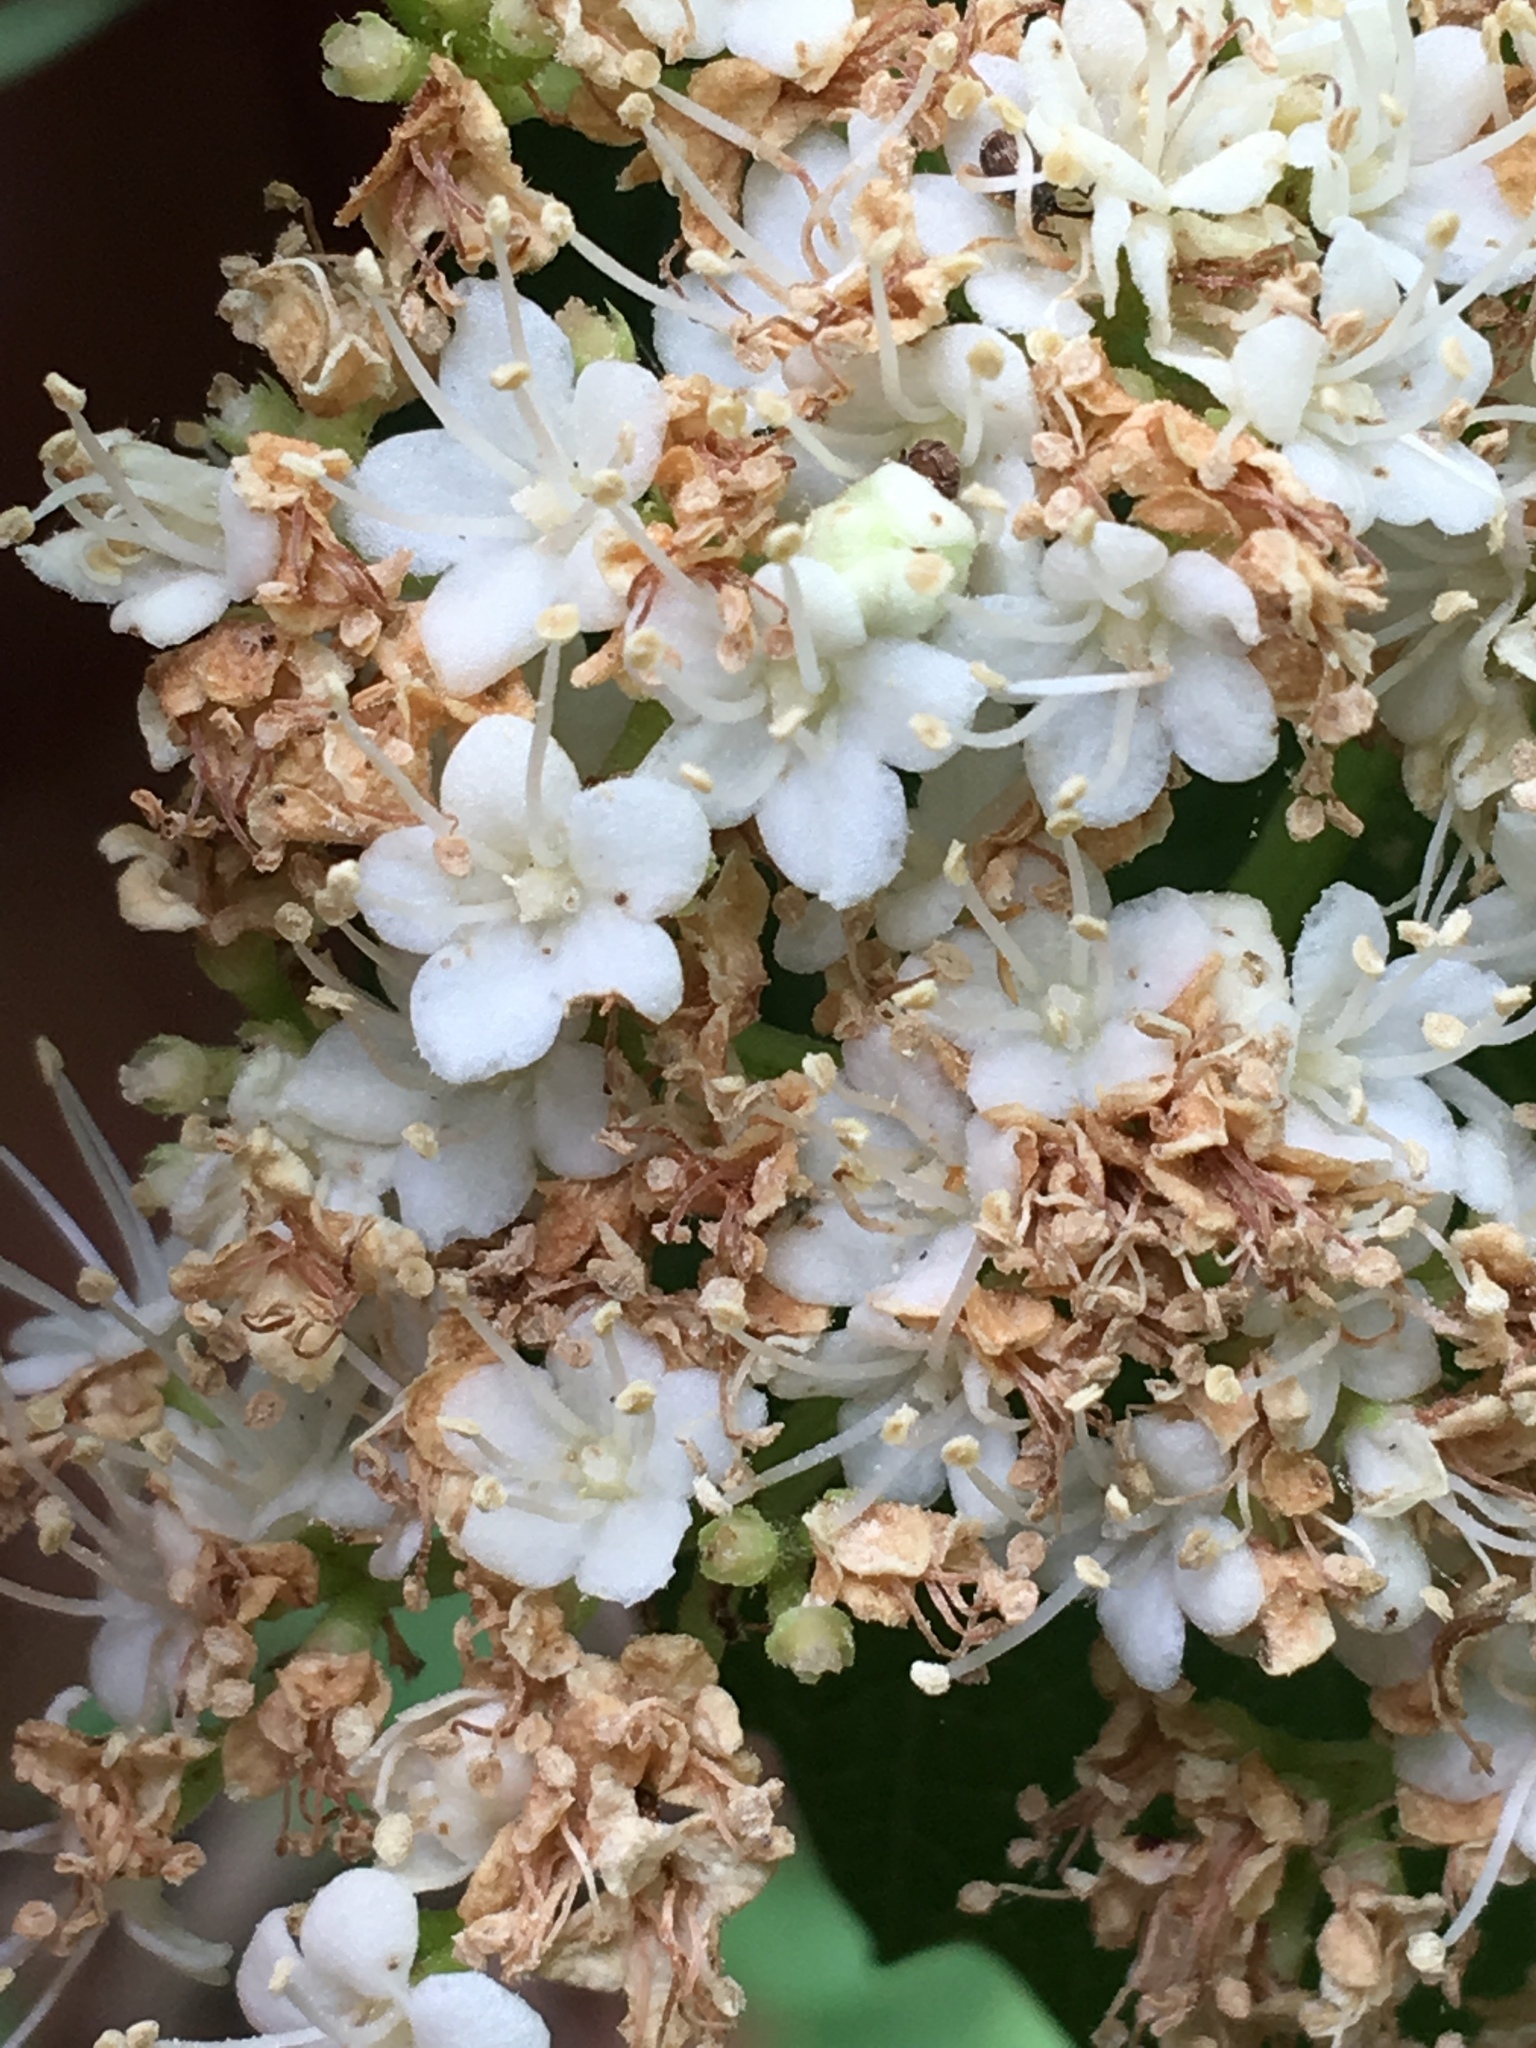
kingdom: Plantae
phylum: Tracheophyta
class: Magnoliopsida
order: Dipsacales
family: Viburnaceae
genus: Viburnum
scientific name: Viburnum dentatum
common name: Arrow-wood
